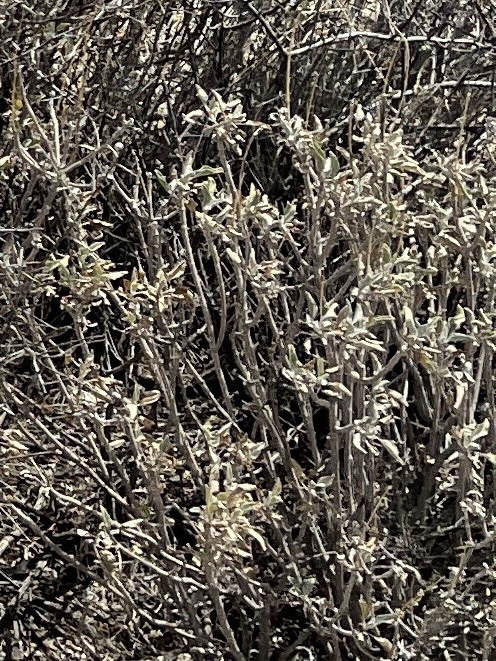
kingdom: Plantae
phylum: Tracheophyta
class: Magnoliopsida
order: Asterales
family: Asteraceae
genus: Encelia
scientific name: Encelia farinosa
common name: Brittlebush
